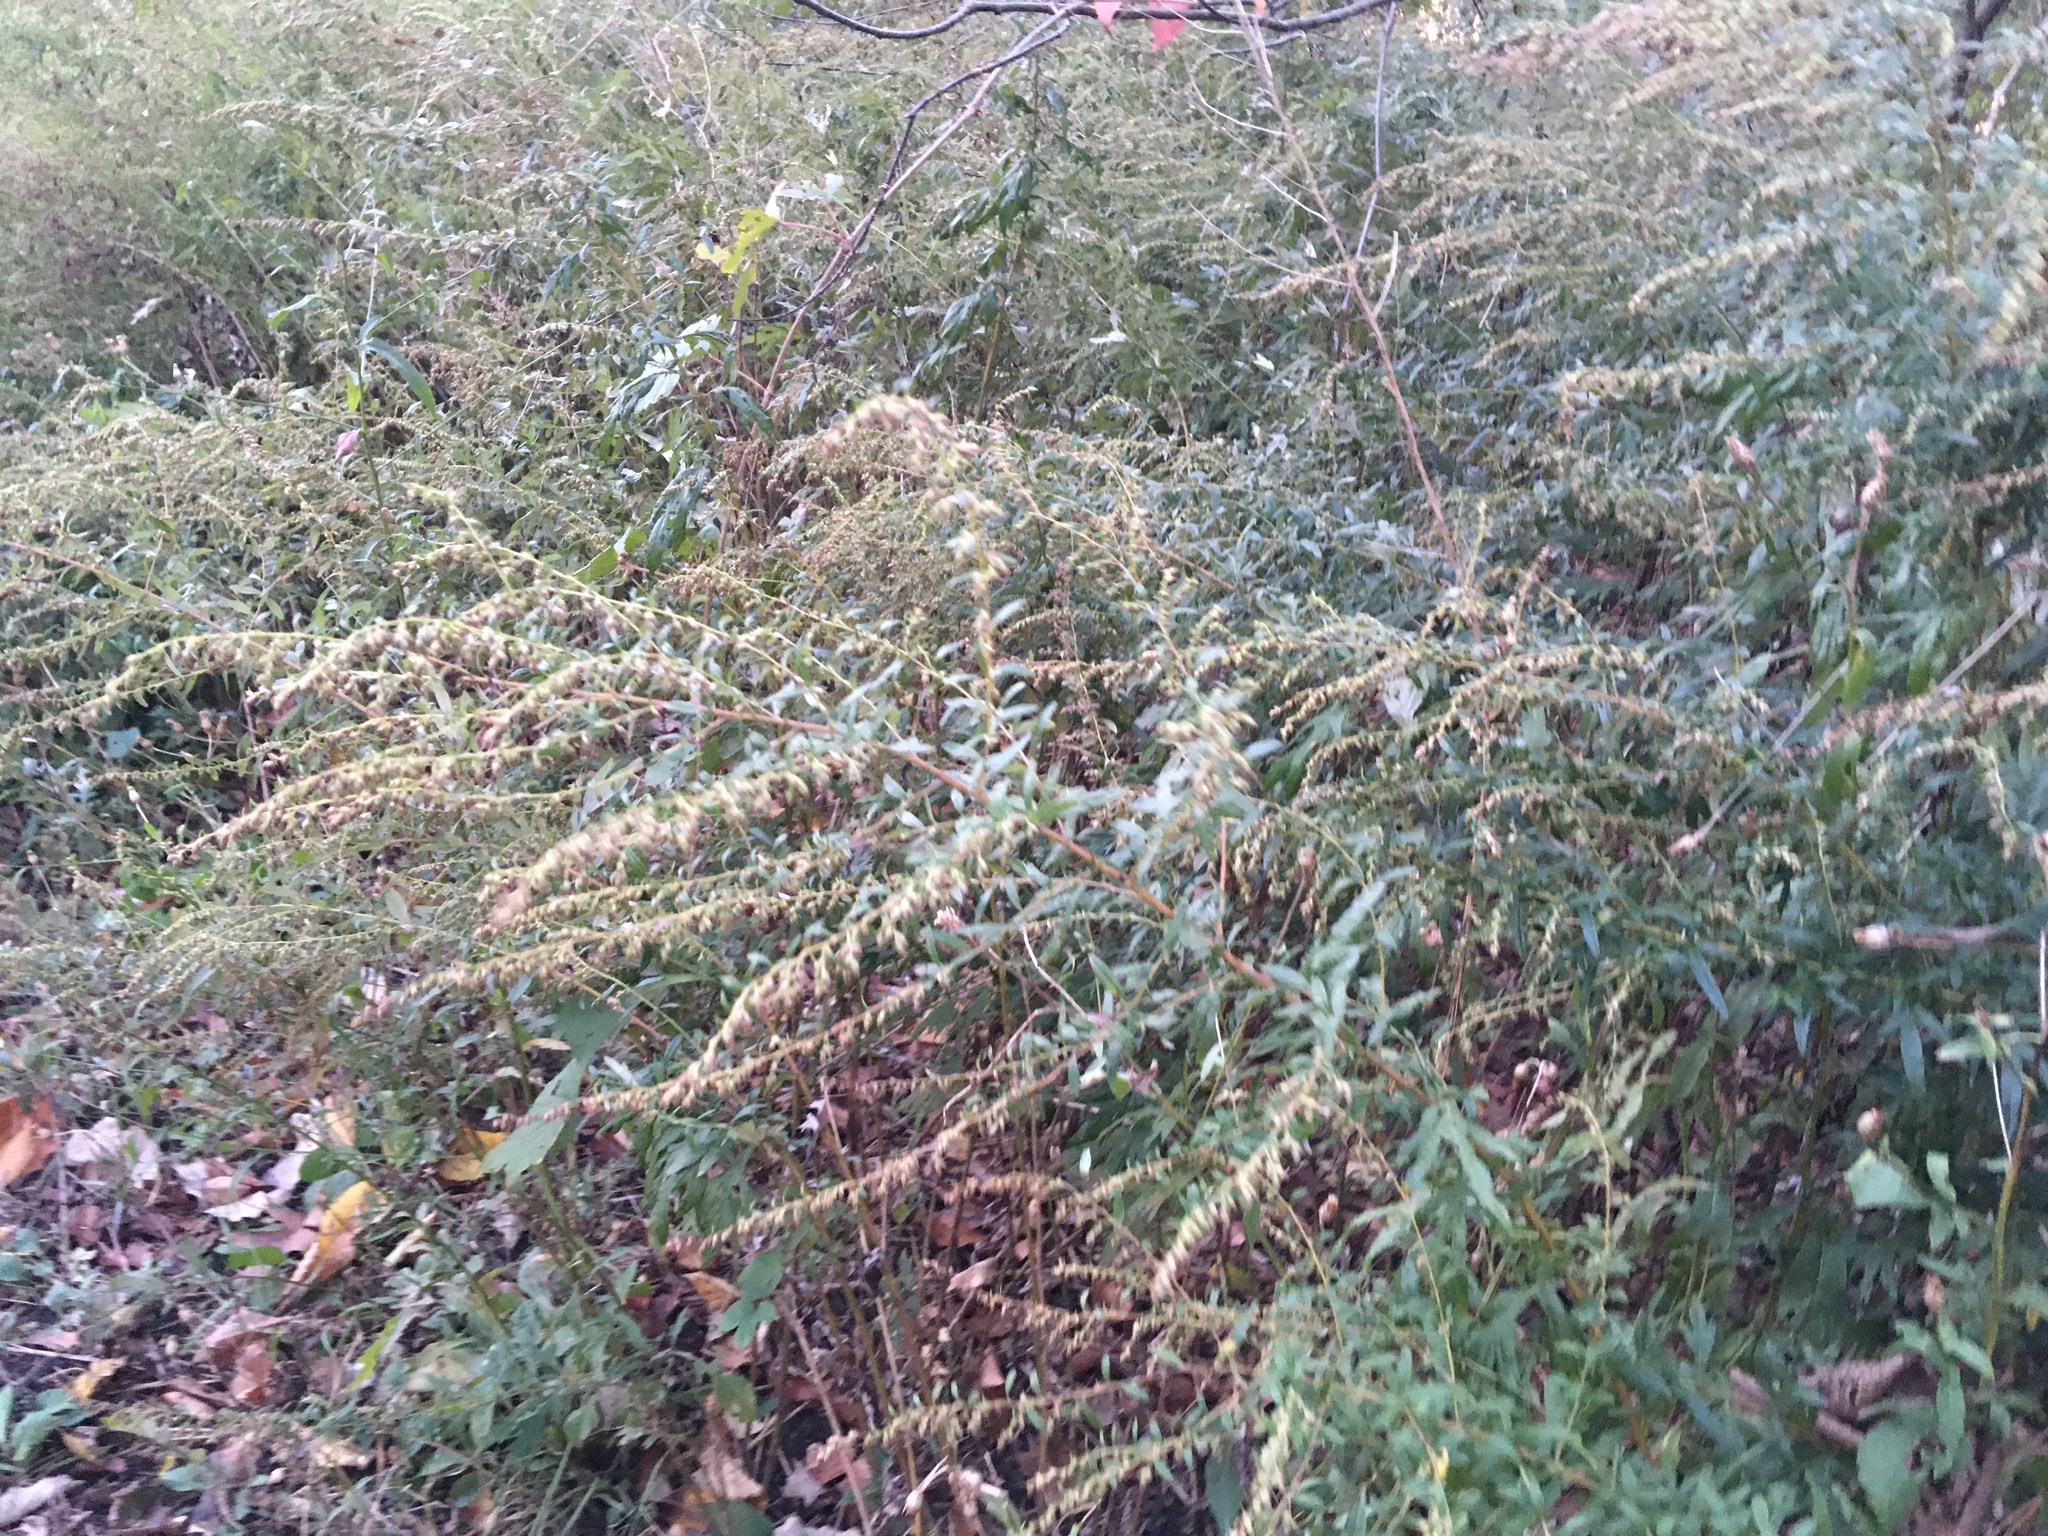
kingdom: Plantae
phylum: Tracheophyta
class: Magnoliopsida
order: Asterales
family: Asteraceae
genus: Artemisia
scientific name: Artemisia vulgaris
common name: Mugwort
